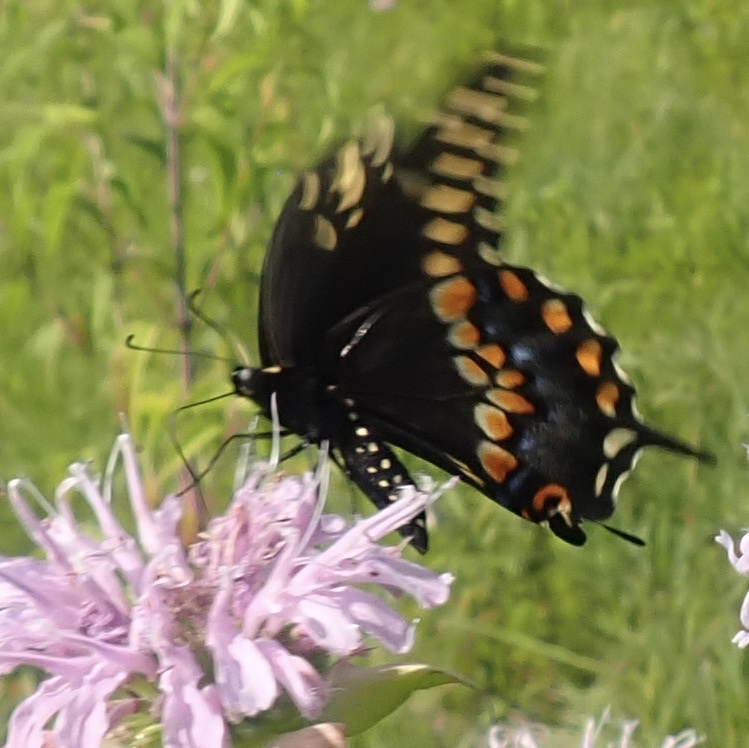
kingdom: Animalia
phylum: Arthropoda
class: Insecta
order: Lepidoptera
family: Papilionidae
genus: Papilio
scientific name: Papilio polyxenes
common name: Black swallowtail
